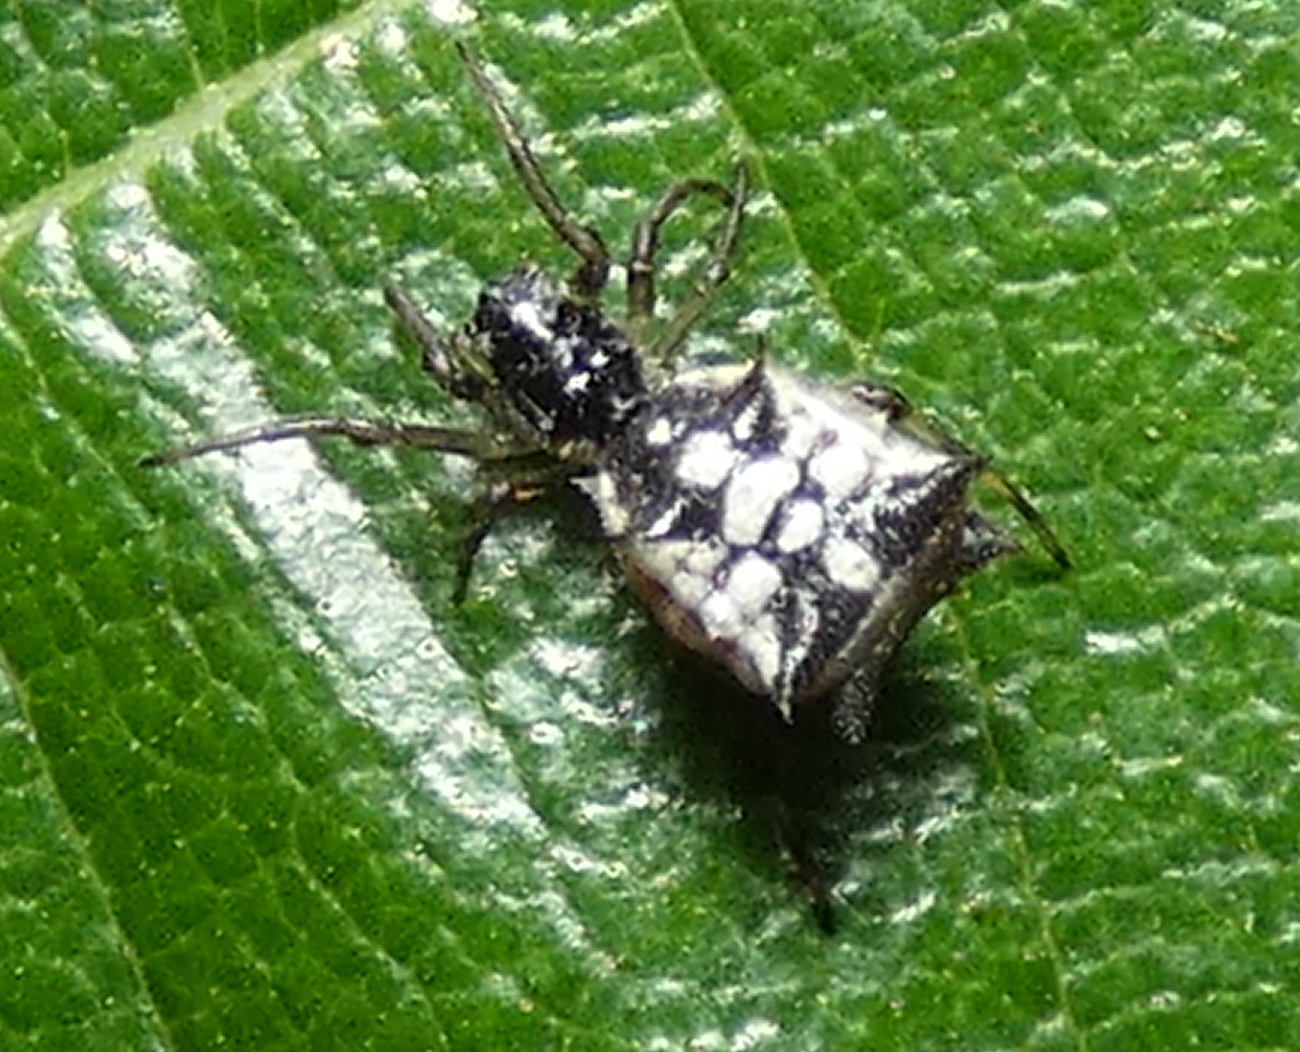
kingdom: Animalia
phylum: Arthropoda
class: Arachnida
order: Araneae
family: Araneidae
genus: Micrathena
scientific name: Micrathena picta
